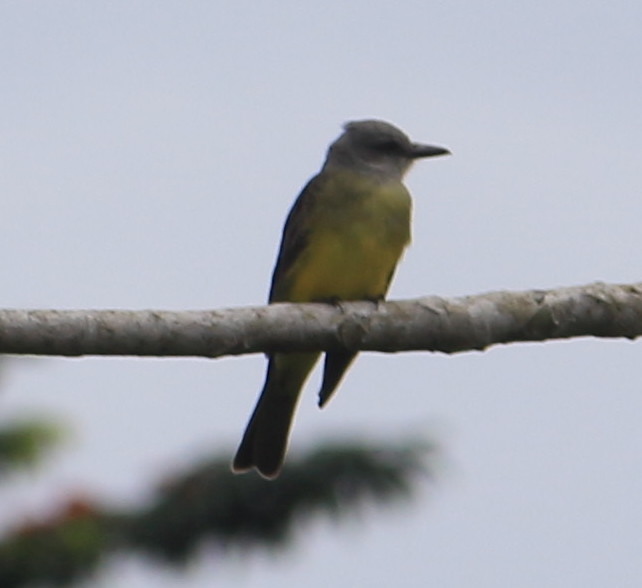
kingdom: Animalia
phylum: Chordata
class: Aves
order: Passeriformes
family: Tyrannidae
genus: Tyrannus
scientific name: Tyrannus melancholicus
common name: Tropical kingbird
